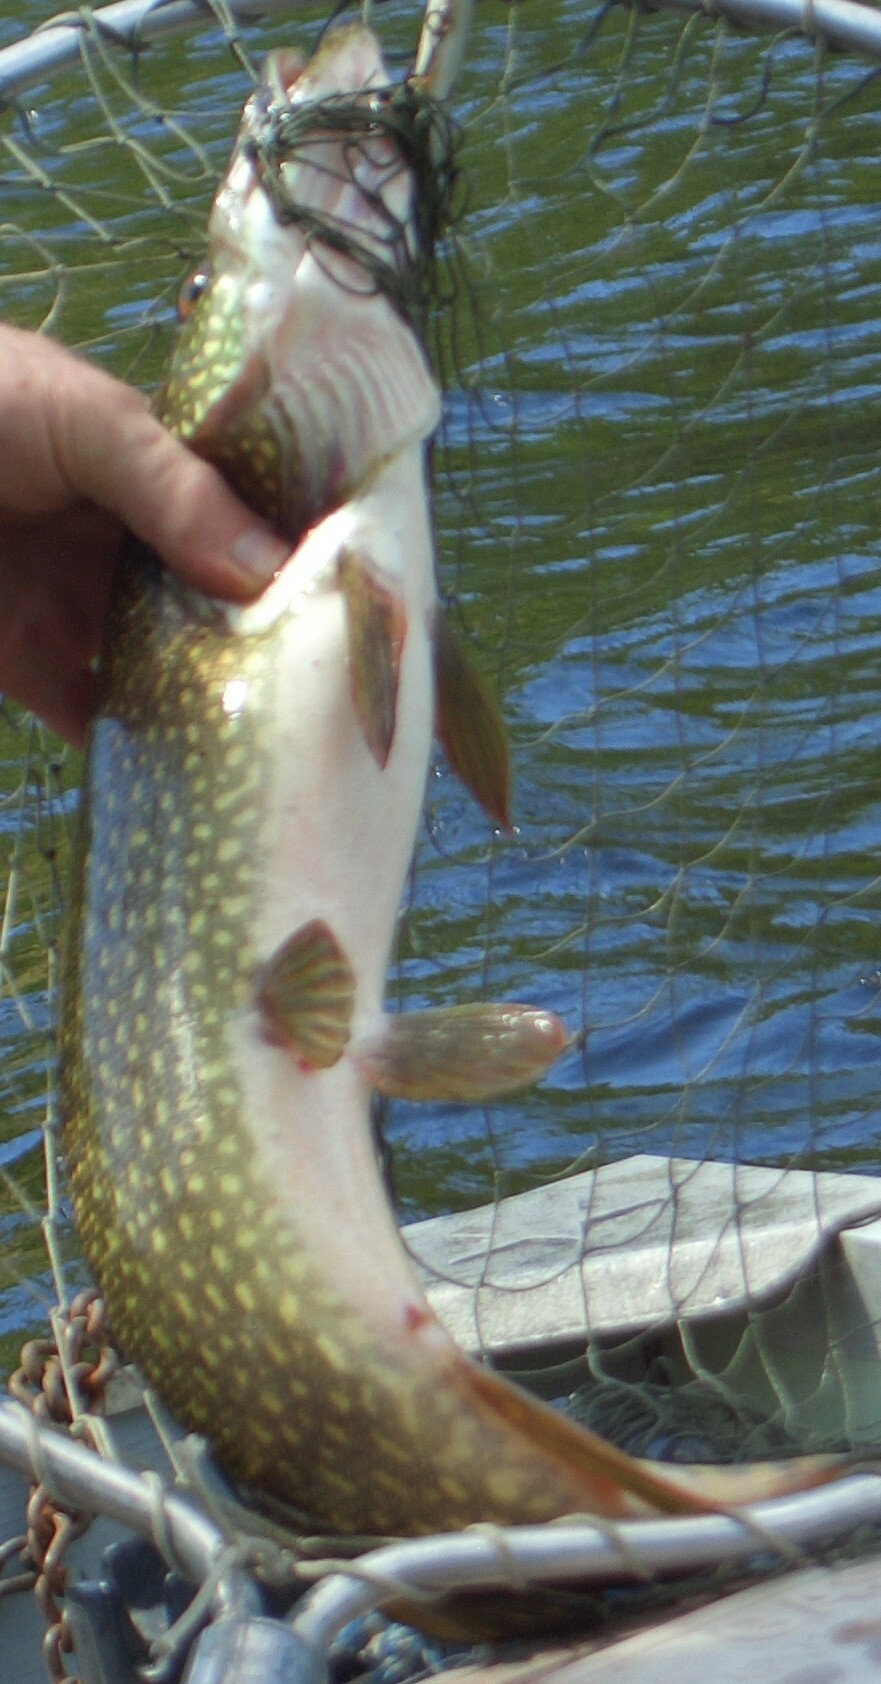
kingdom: Animalia
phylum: Chordata
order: Esociformes
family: Esocidae
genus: Esox
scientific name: Esox lucius
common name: Northern pike
